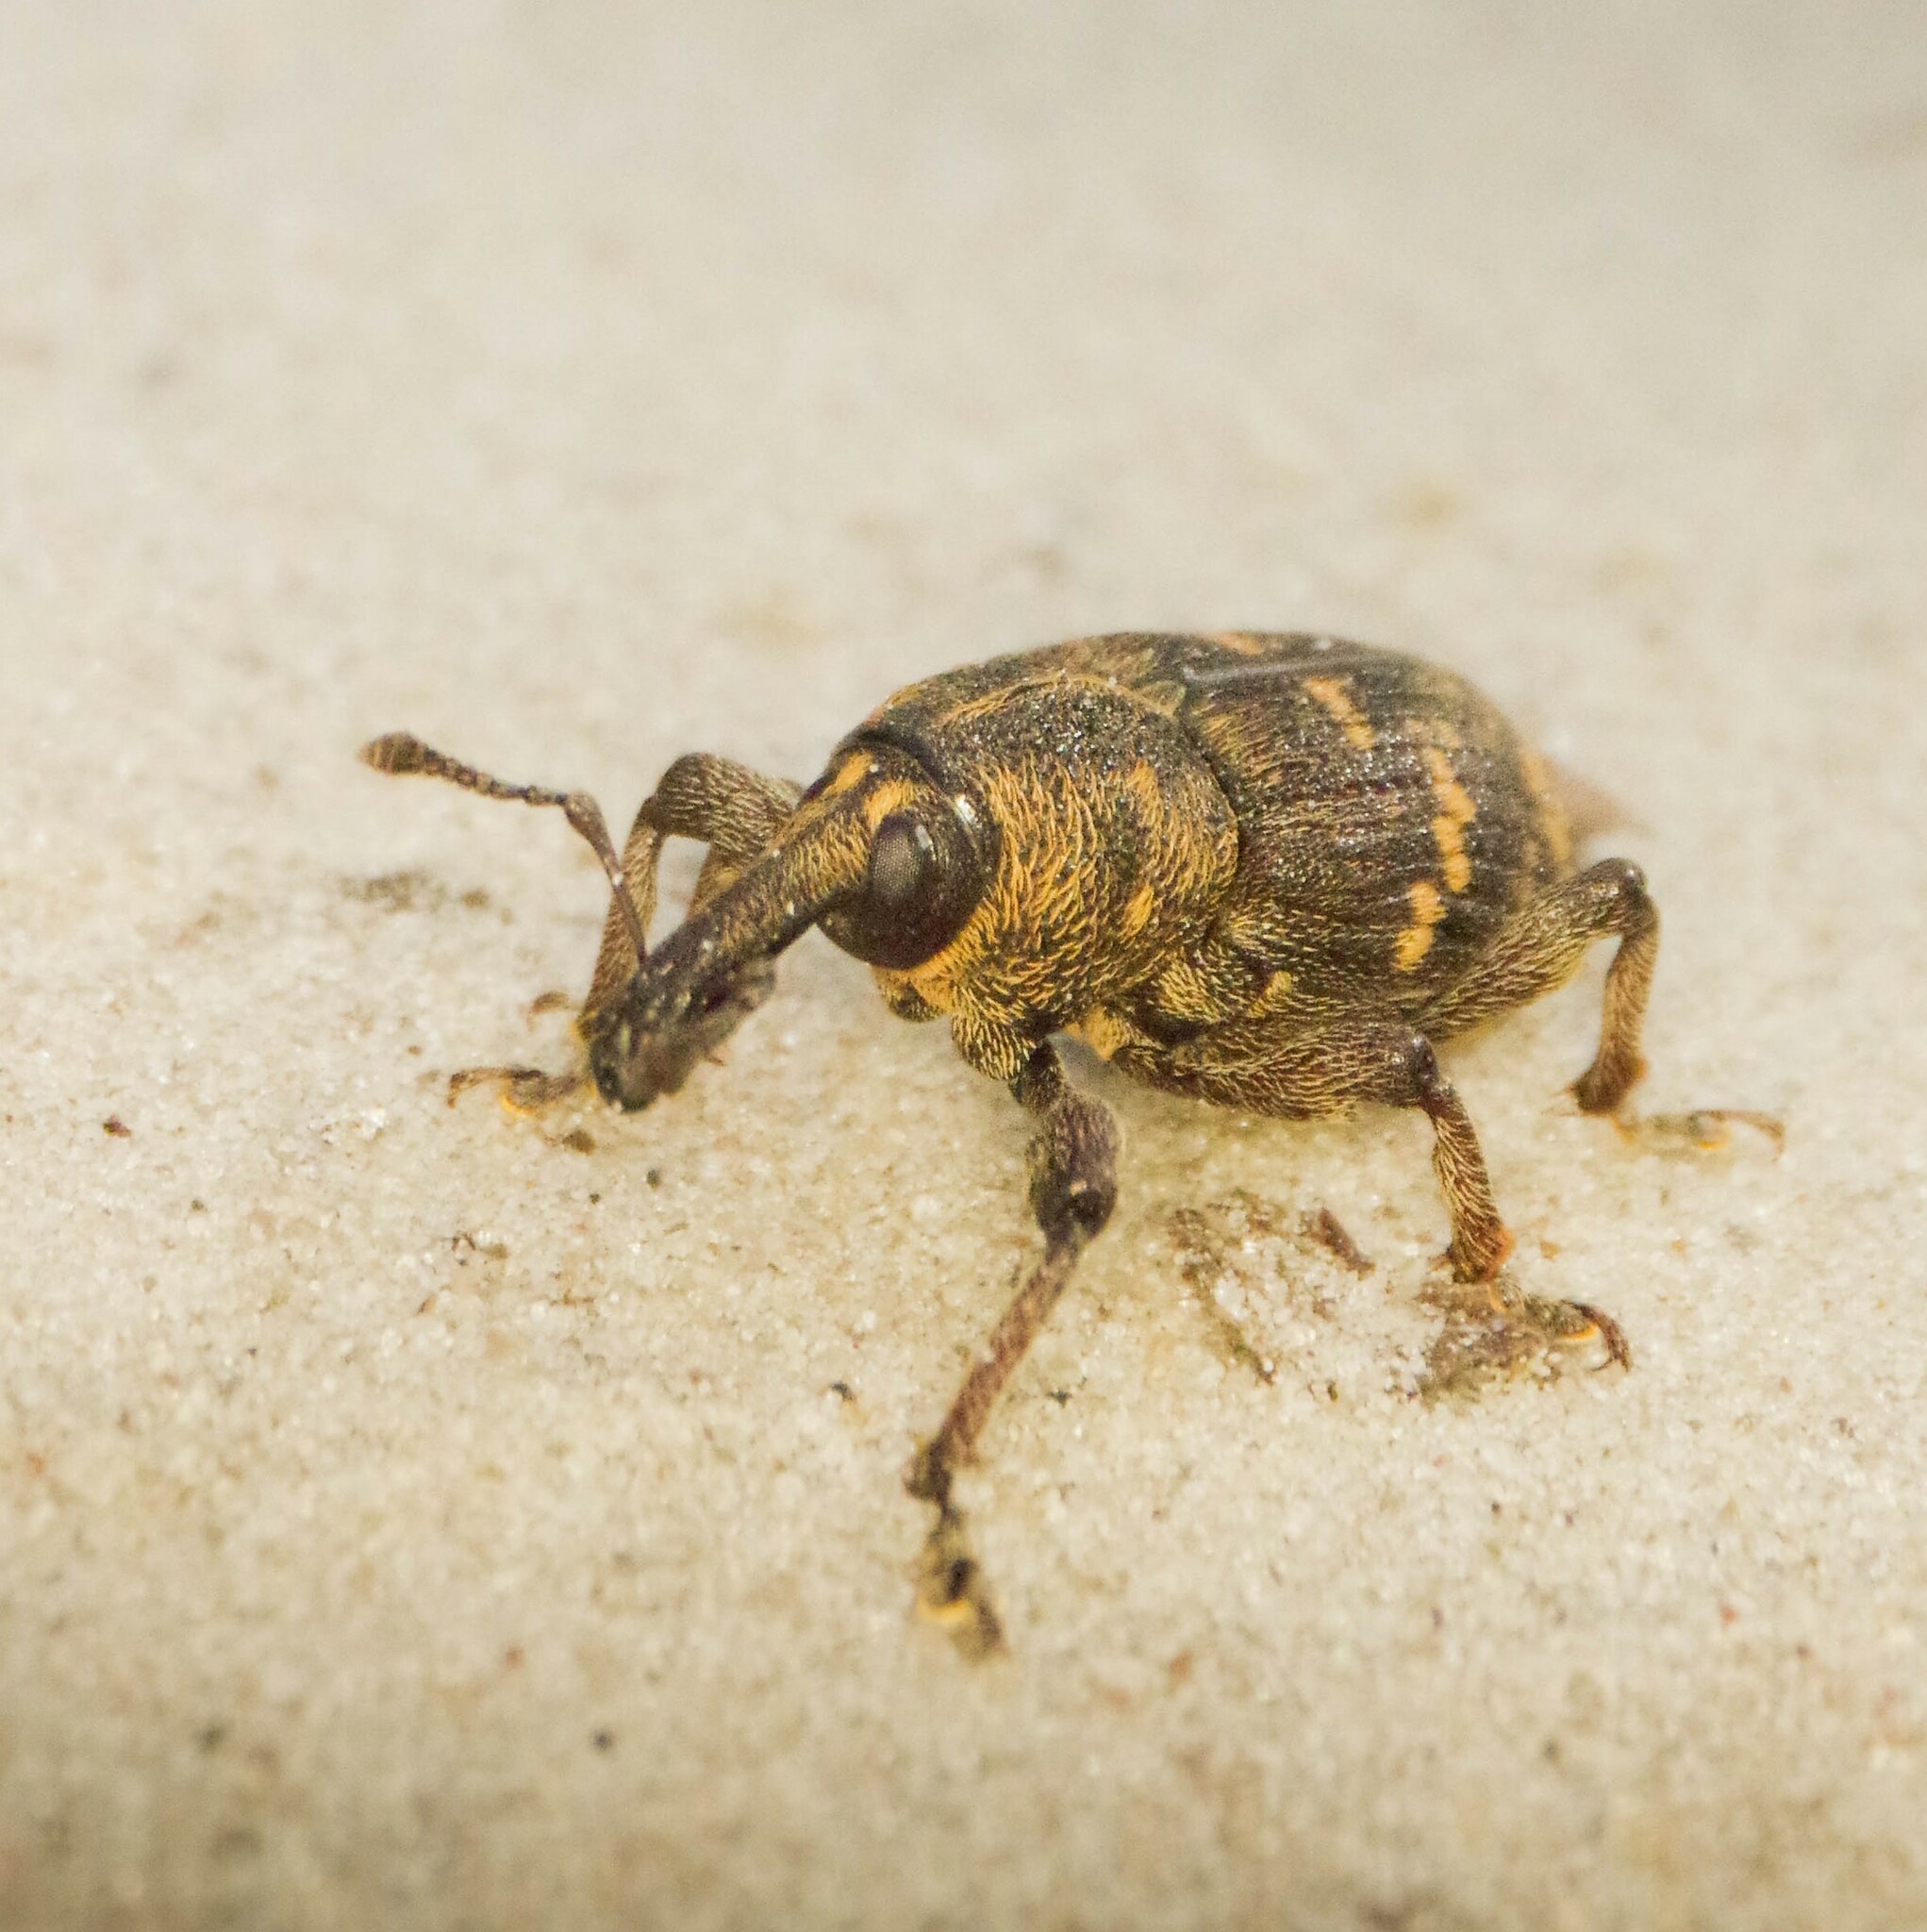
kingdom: Animalia
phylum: Arthropoda
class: Insecta
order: Coleoptera
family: Curculionidae
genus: Hylobius
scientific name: Hylobius abietis
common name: Large pine weevil
